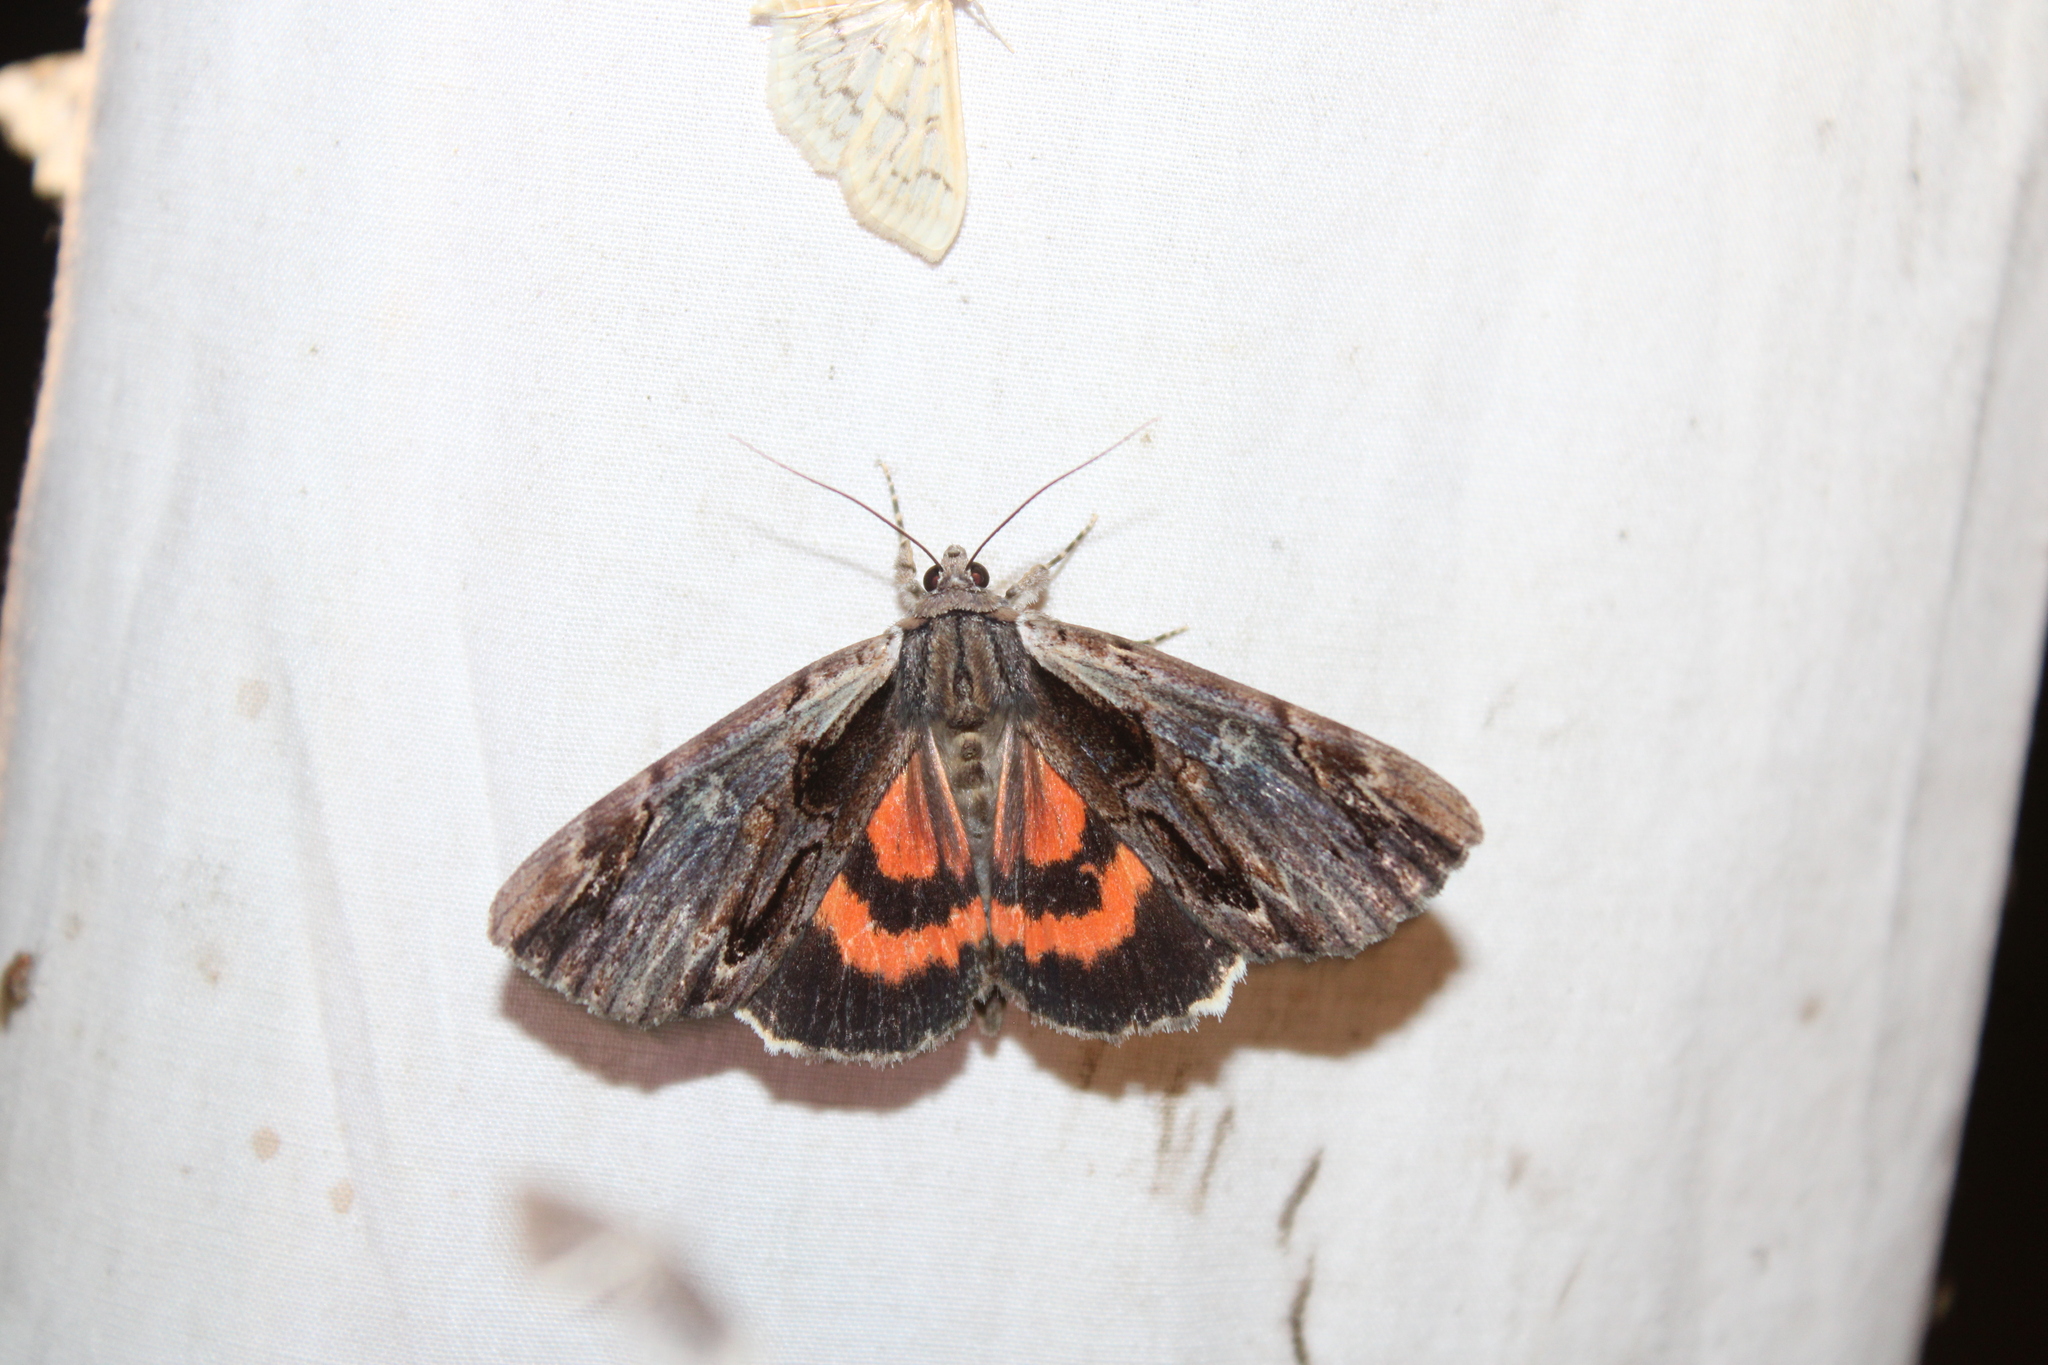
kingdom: Animalia
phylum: Arthropoda
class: Insecta
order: Lepidoptera
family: Erebidae
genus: Catocala
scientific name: Catocala ultronia
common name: Ultronia underwing
